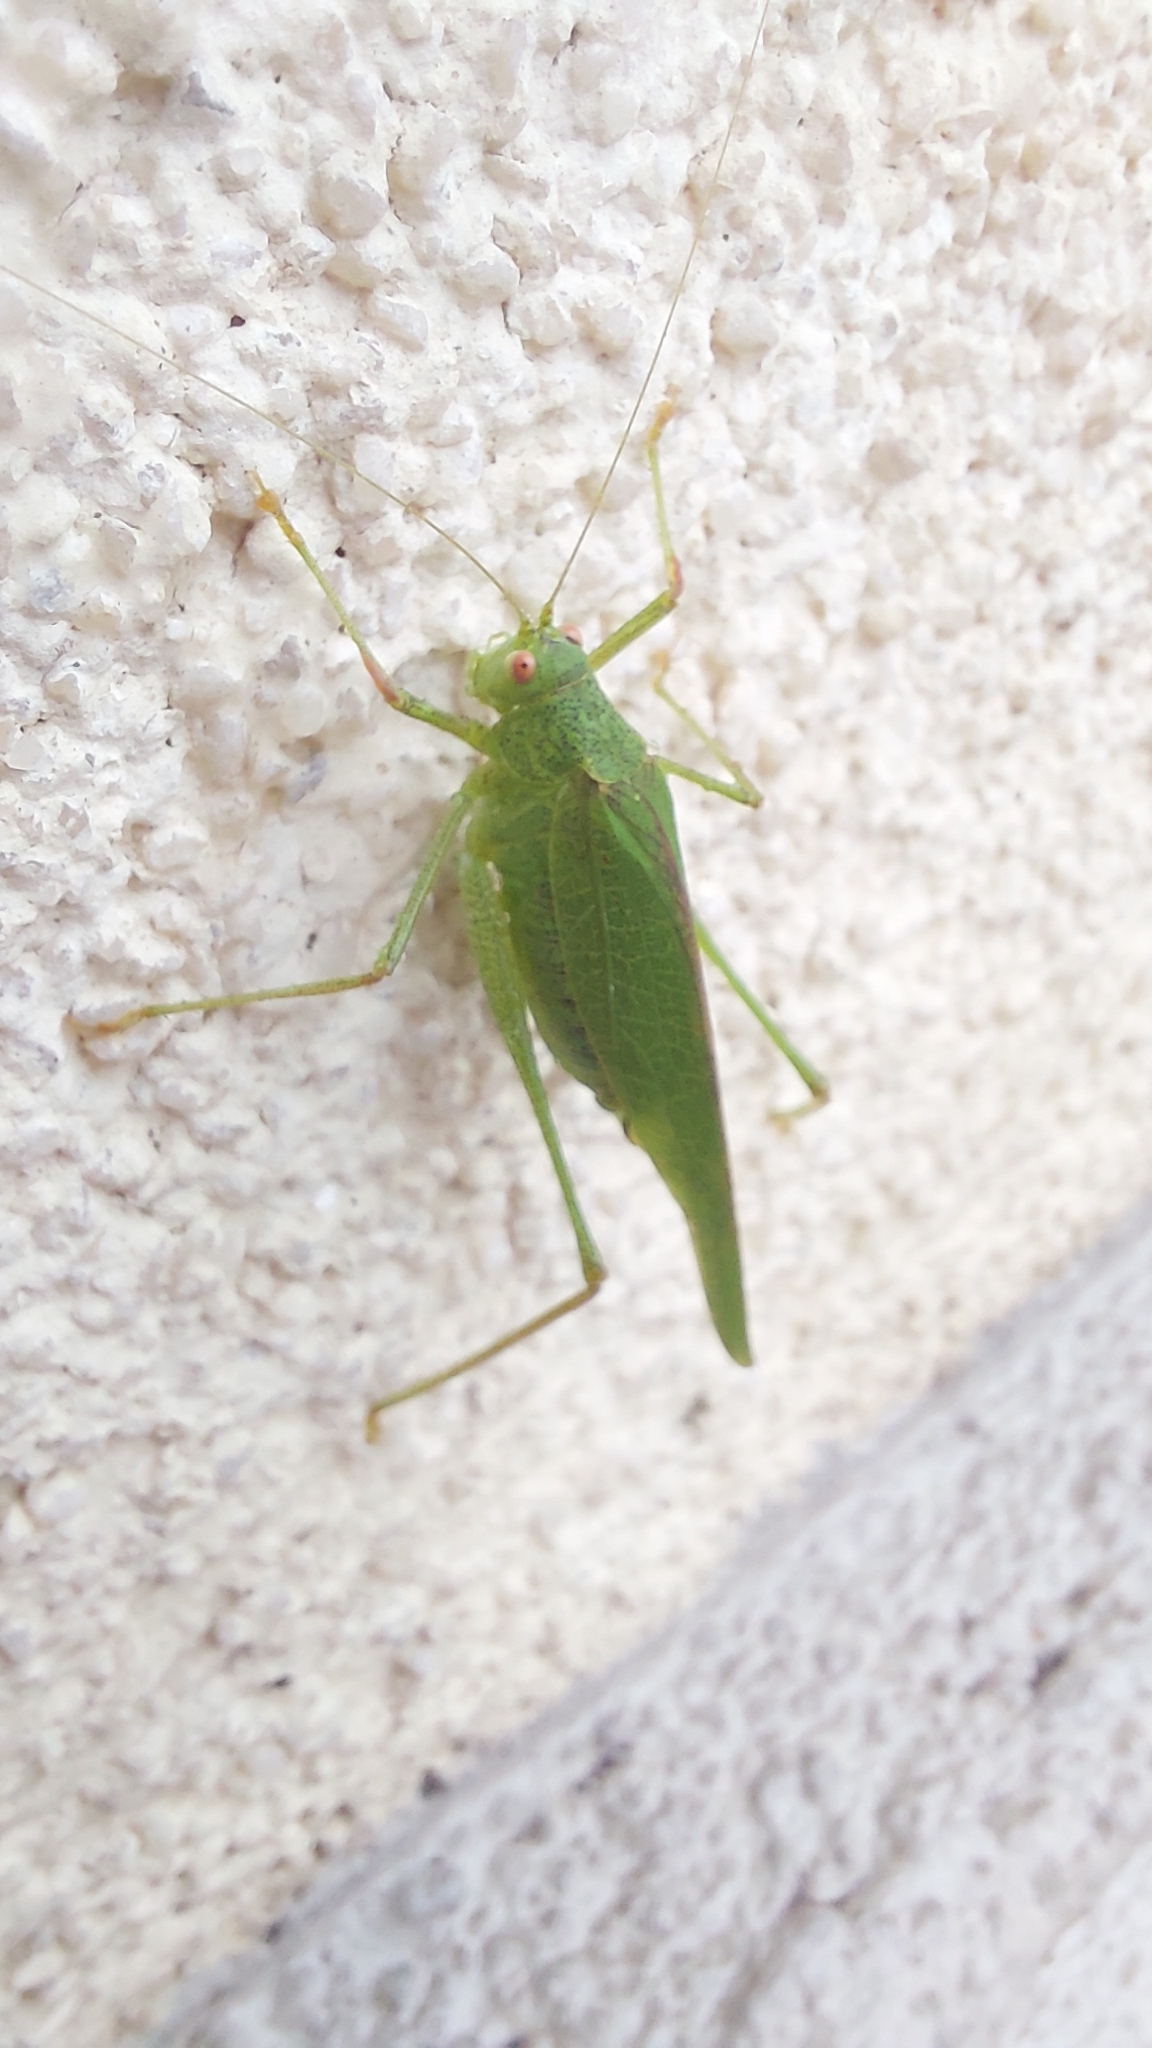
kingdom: Animalia
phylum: Arthropoda
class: Insecta
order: Orthoptera
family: Tettigoniidae
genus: Phaneroptera
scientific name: Phaneroptera nana
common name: Southern sickle bush-cricket
